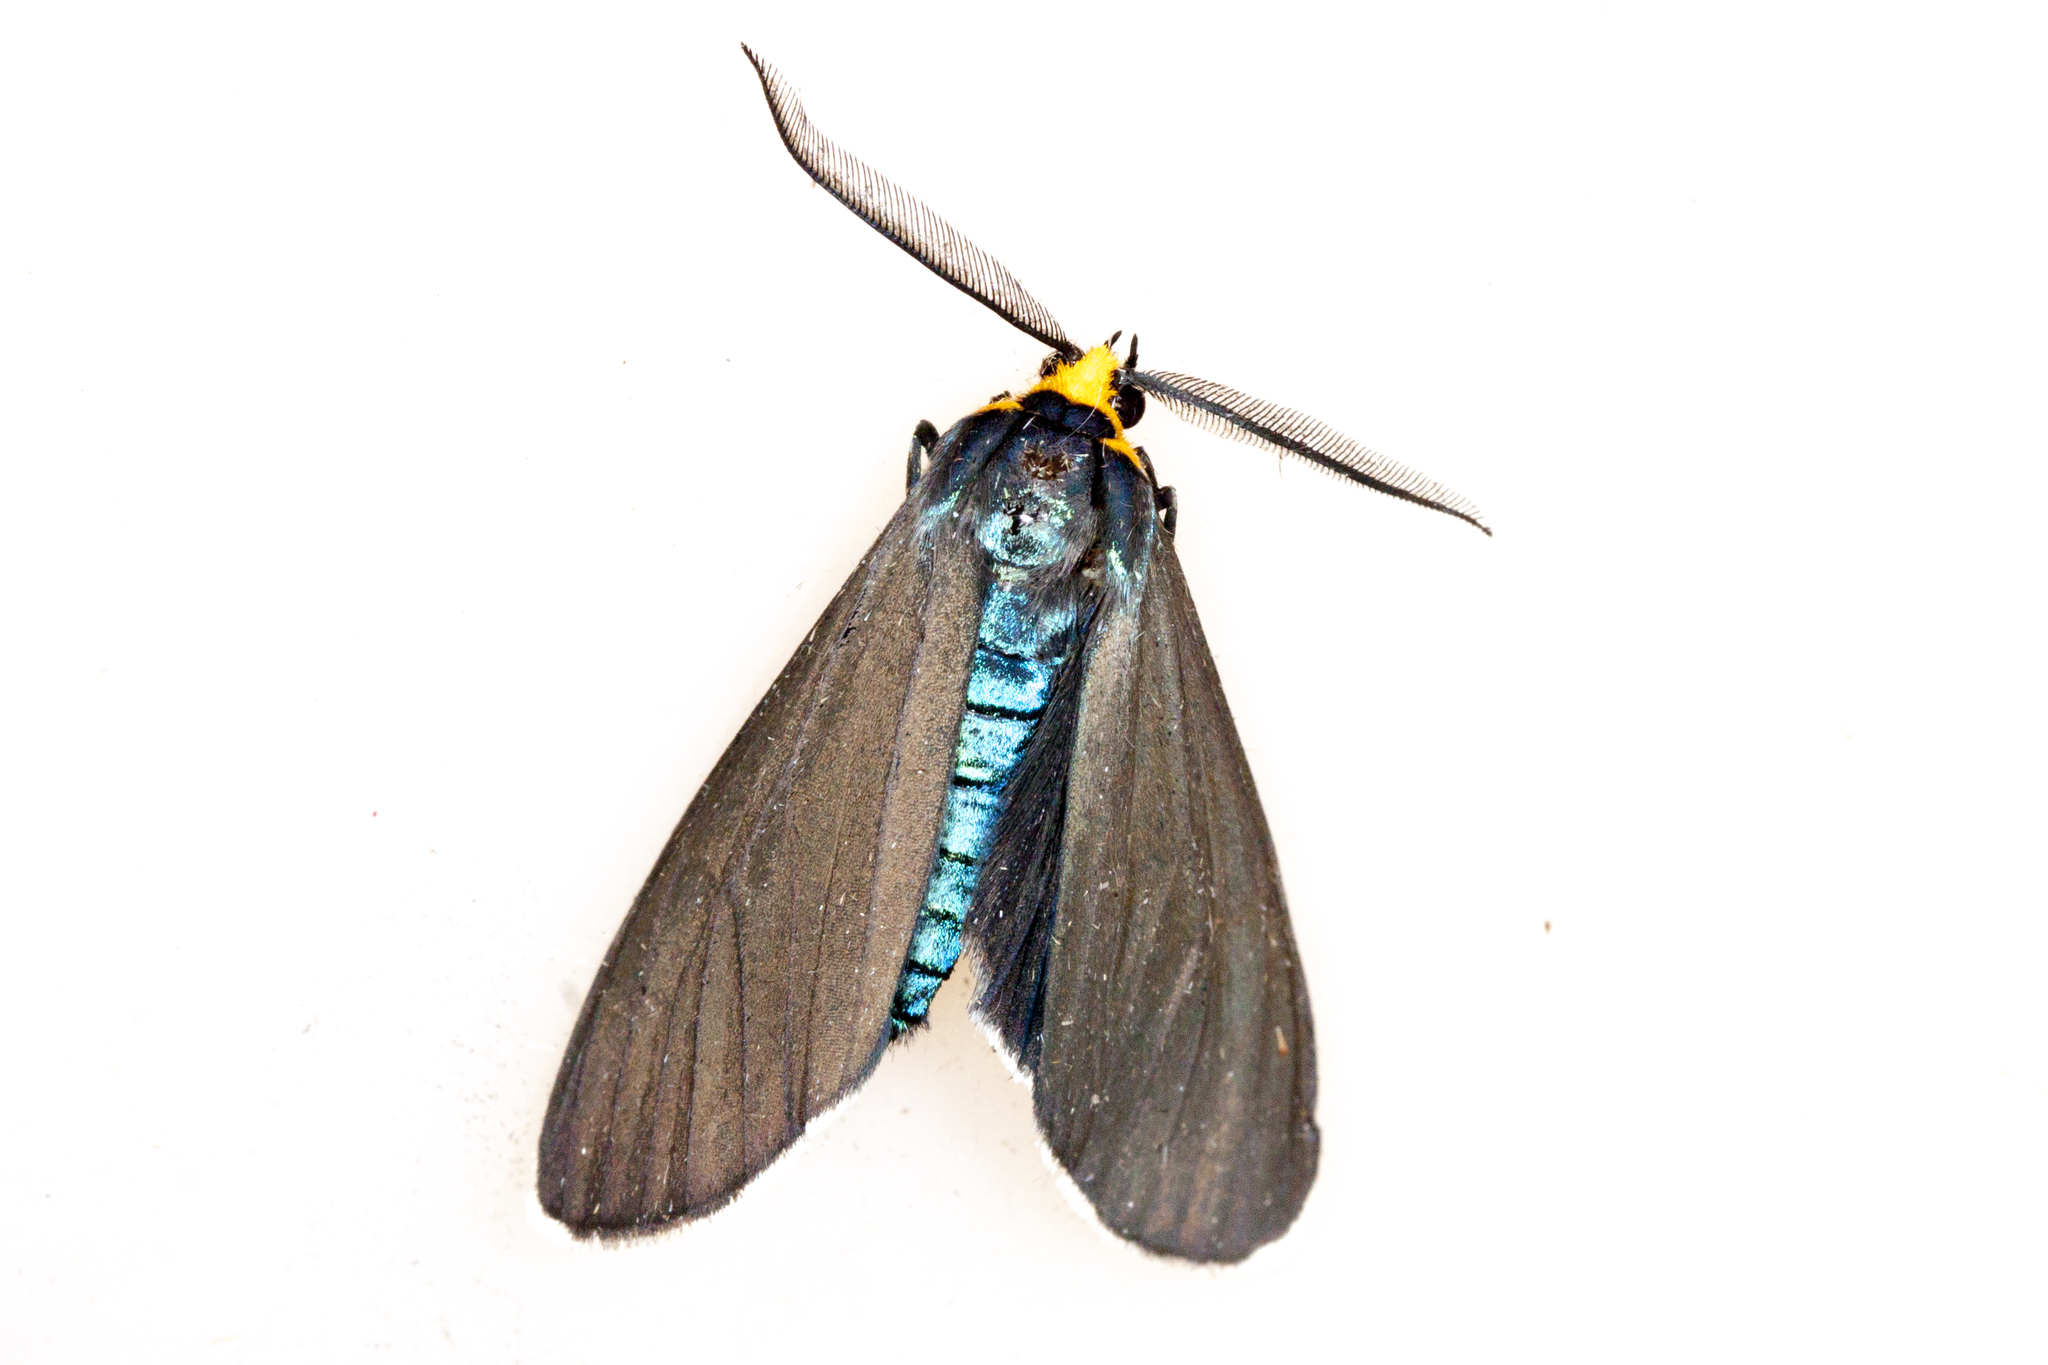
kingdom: Animalia
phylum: Arthropoda
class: Insecta
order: Lepidoptera
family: Erebidae
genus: Ctenucha
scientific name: Ctenucha virginica
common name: Virginia ctenucha moth
